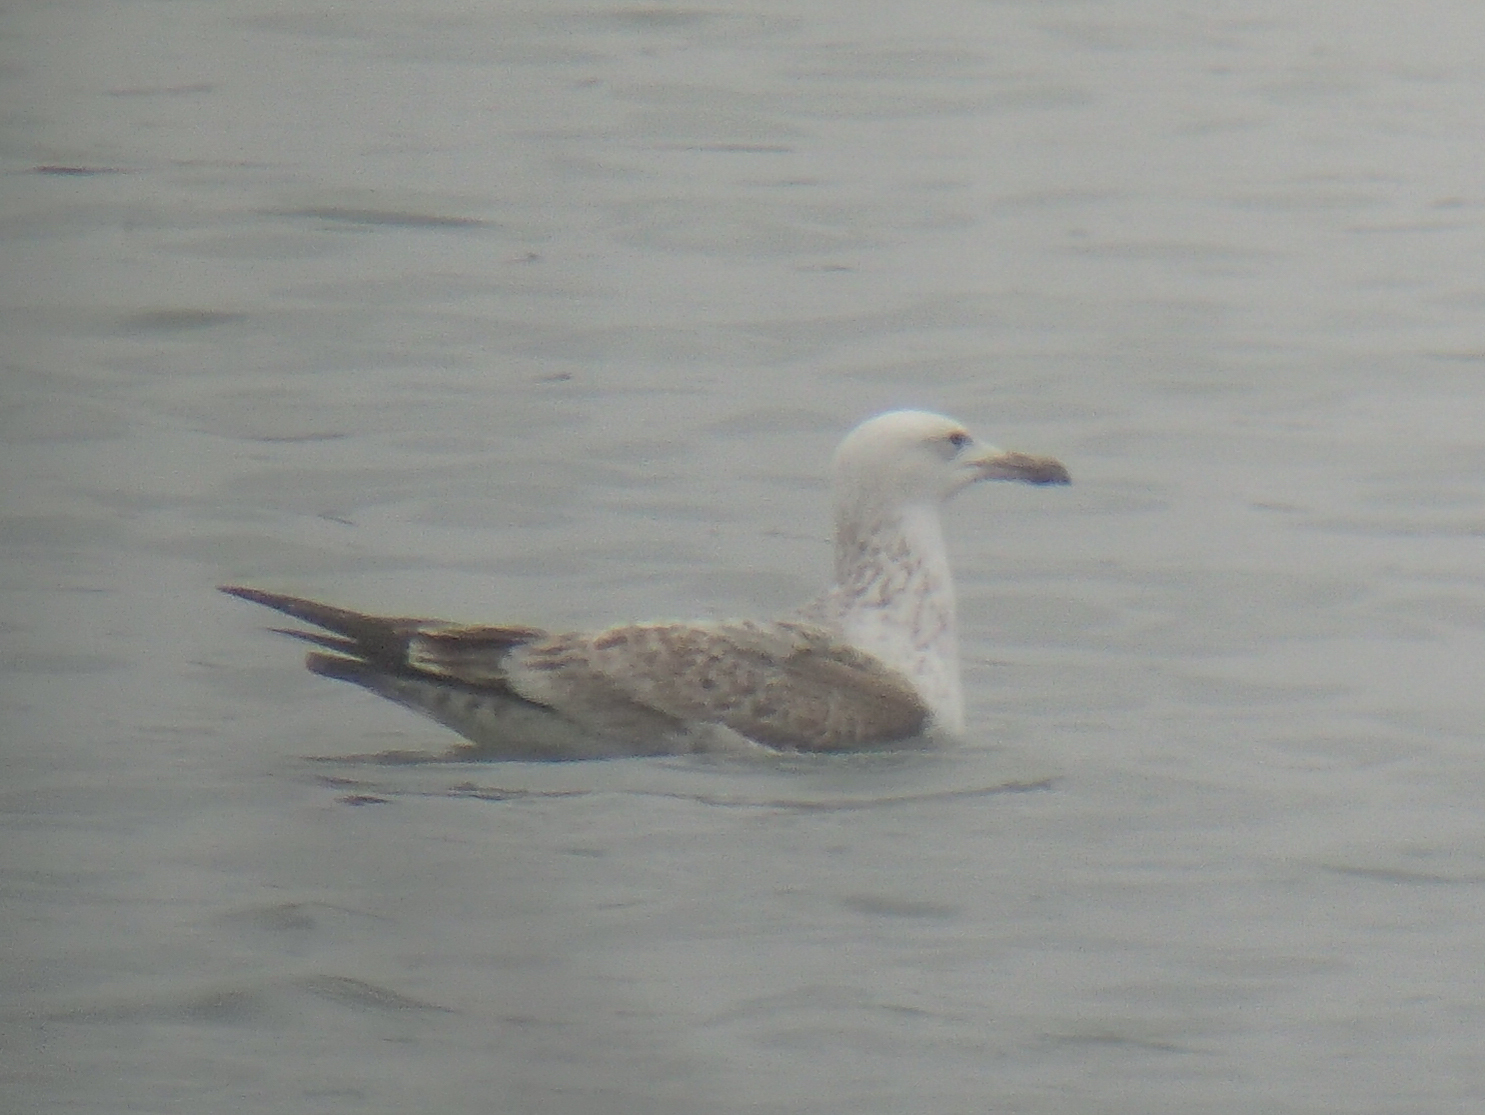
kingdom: Animalia
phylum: Chordata
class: Aves
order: Charadriiformes
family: Laridae
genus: Larus
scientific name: Larus cachinnans
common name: Caspian gull
